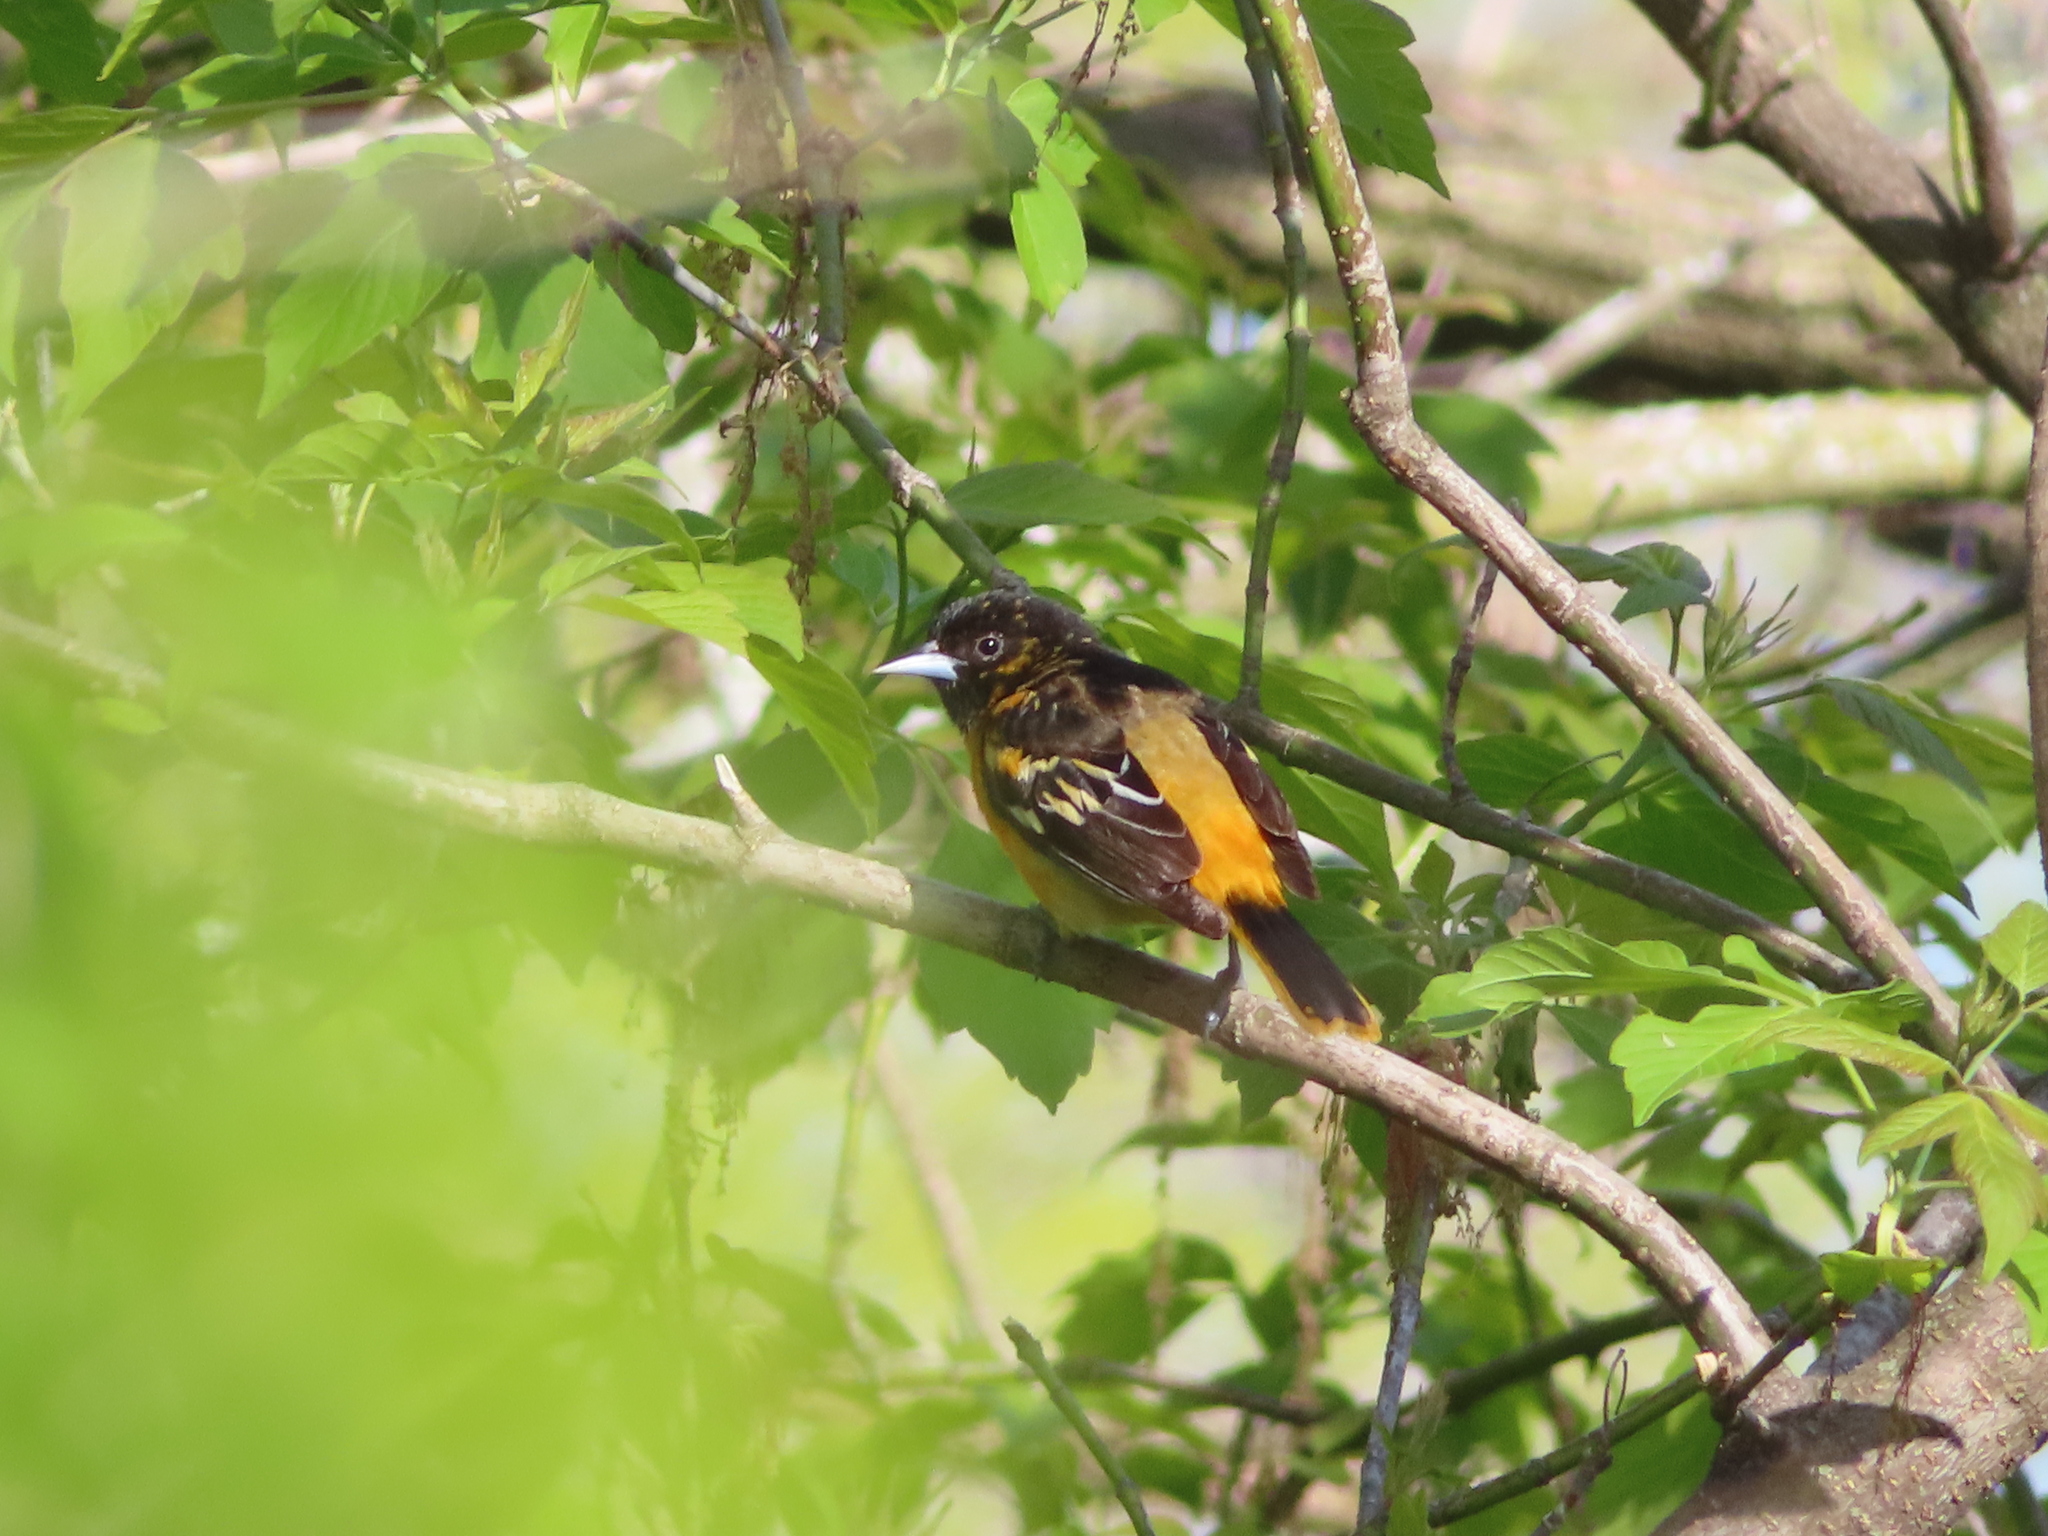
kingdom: Animalia
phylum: Chordata
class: Aves
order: Passeriformes
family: Icteridae
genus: Icterus
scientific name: Icterus galbula
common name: Baltimore oriole
